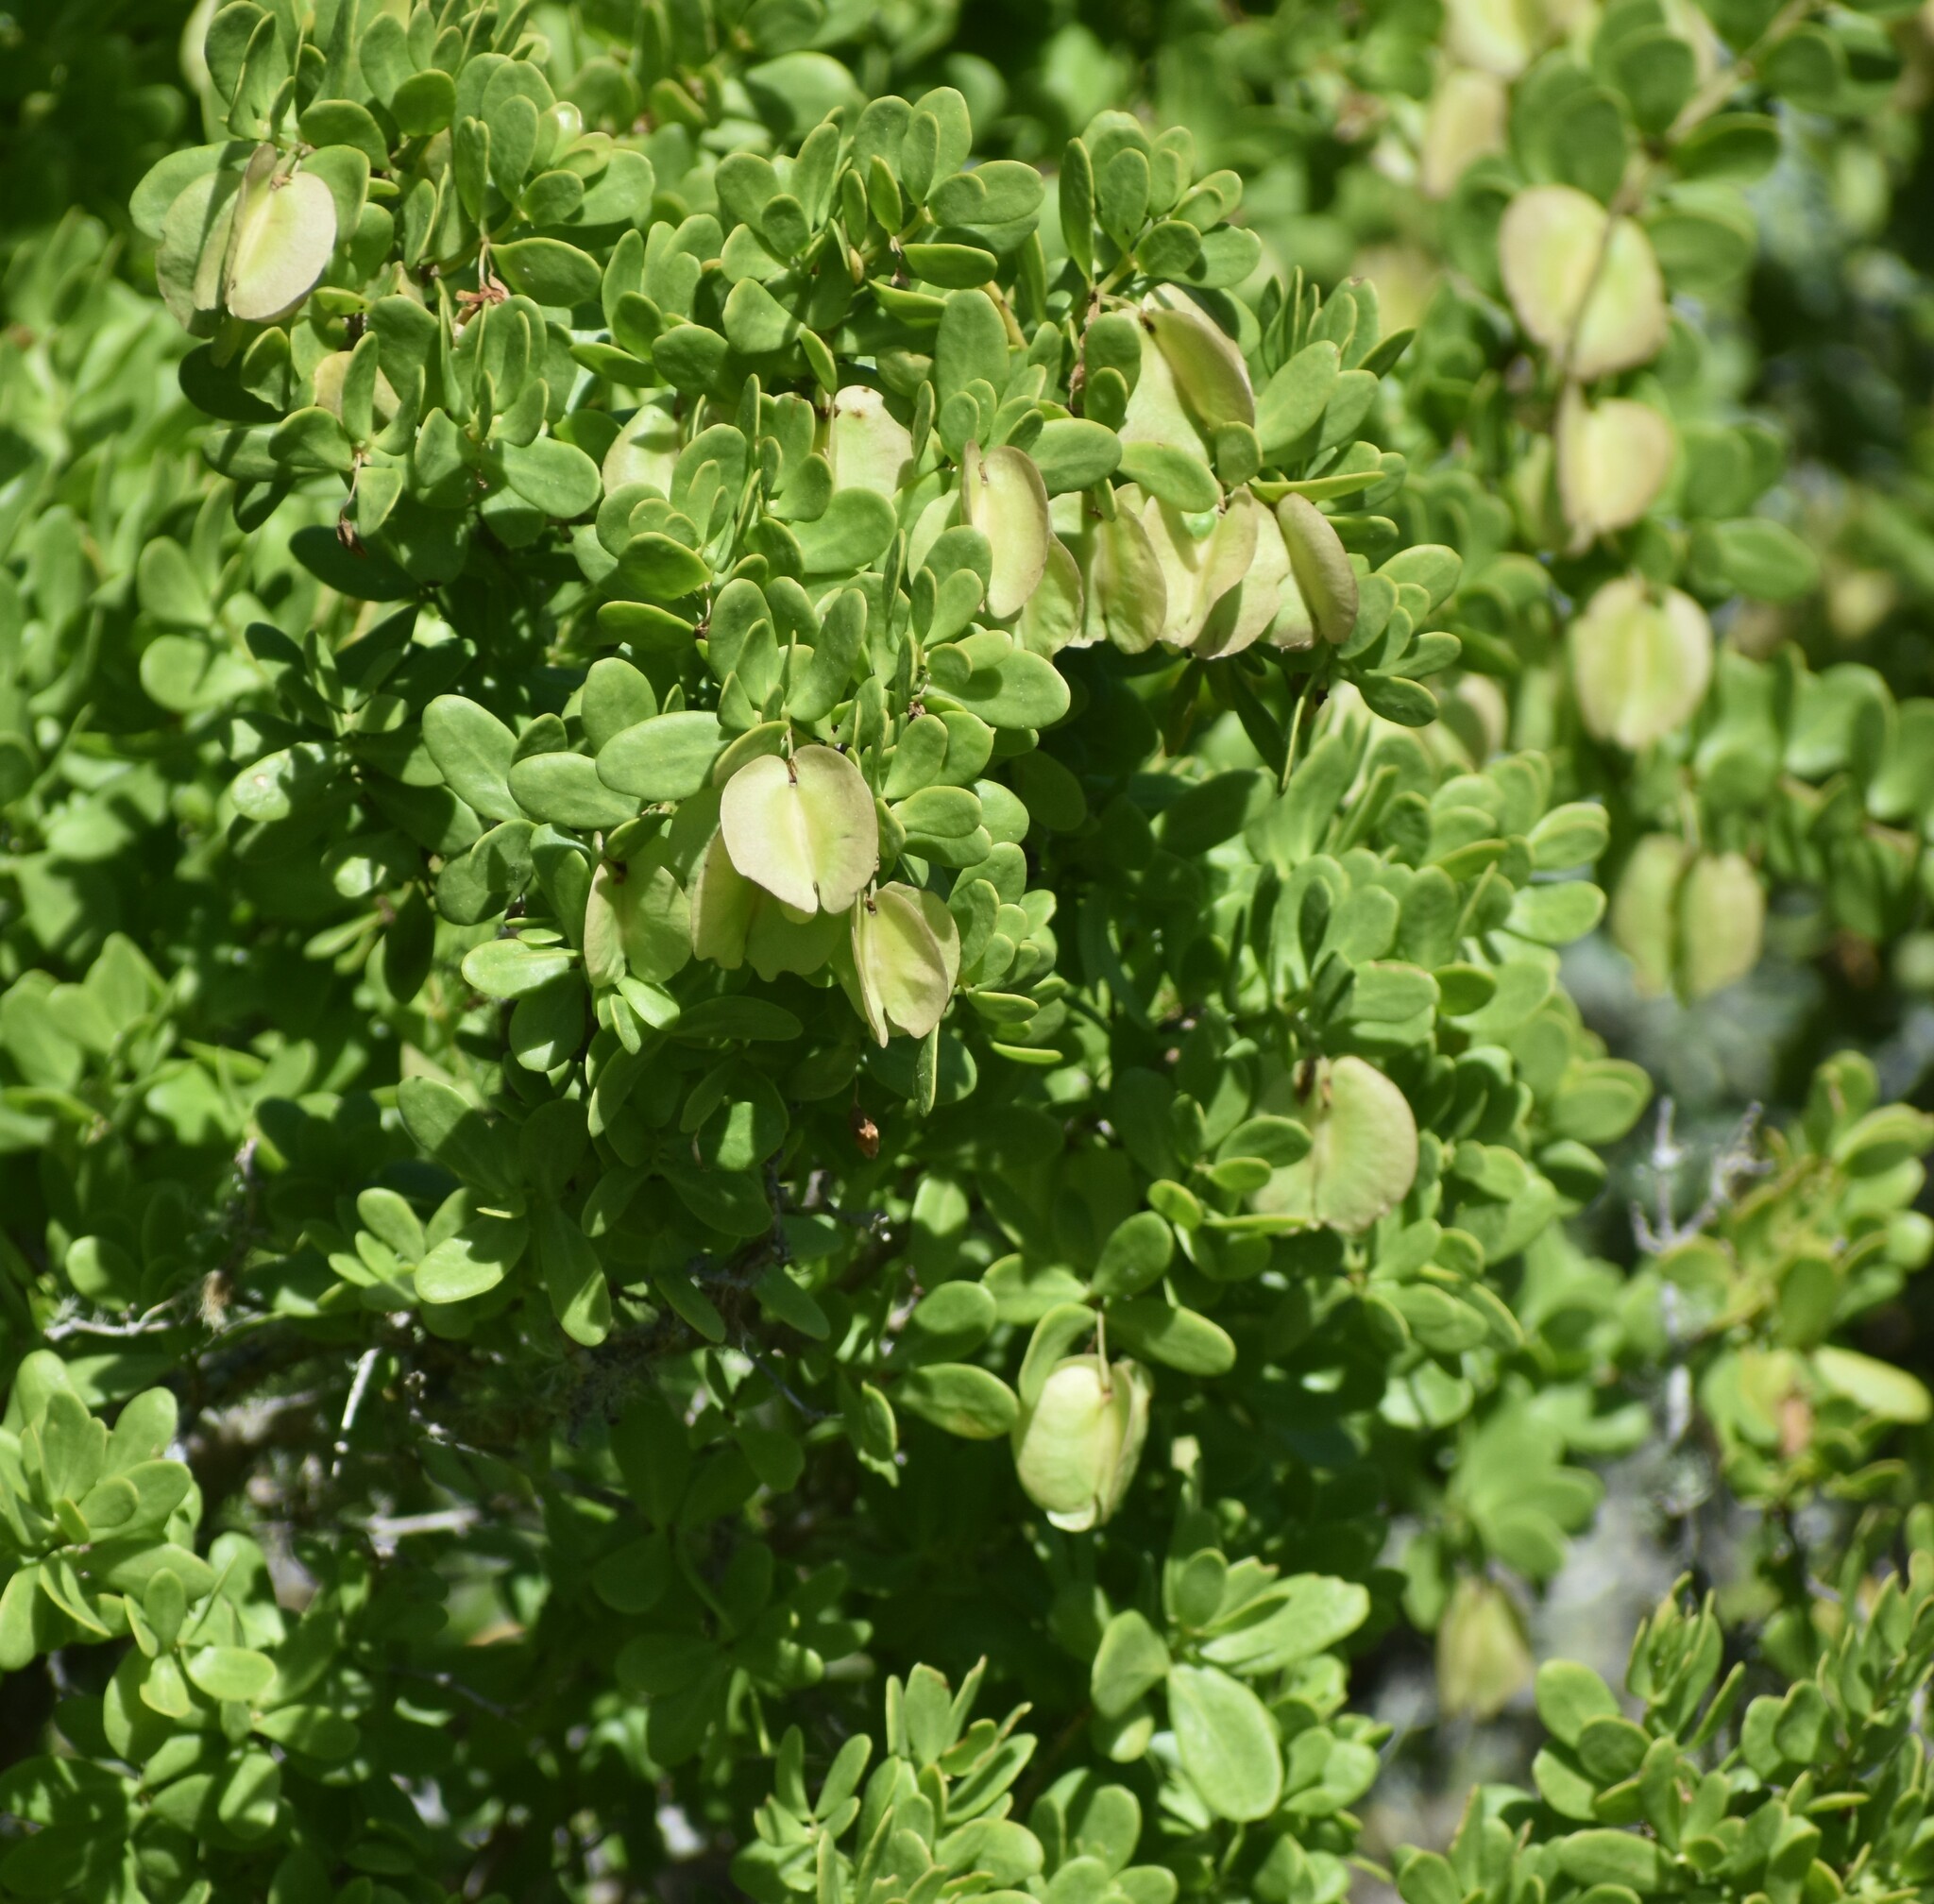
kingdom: Plantae
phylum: Tracheophyta
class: Magnoliopsida
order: Zygophyllales
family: Zygophyllaceae
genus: Roepera
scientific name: Roepera morgsana
